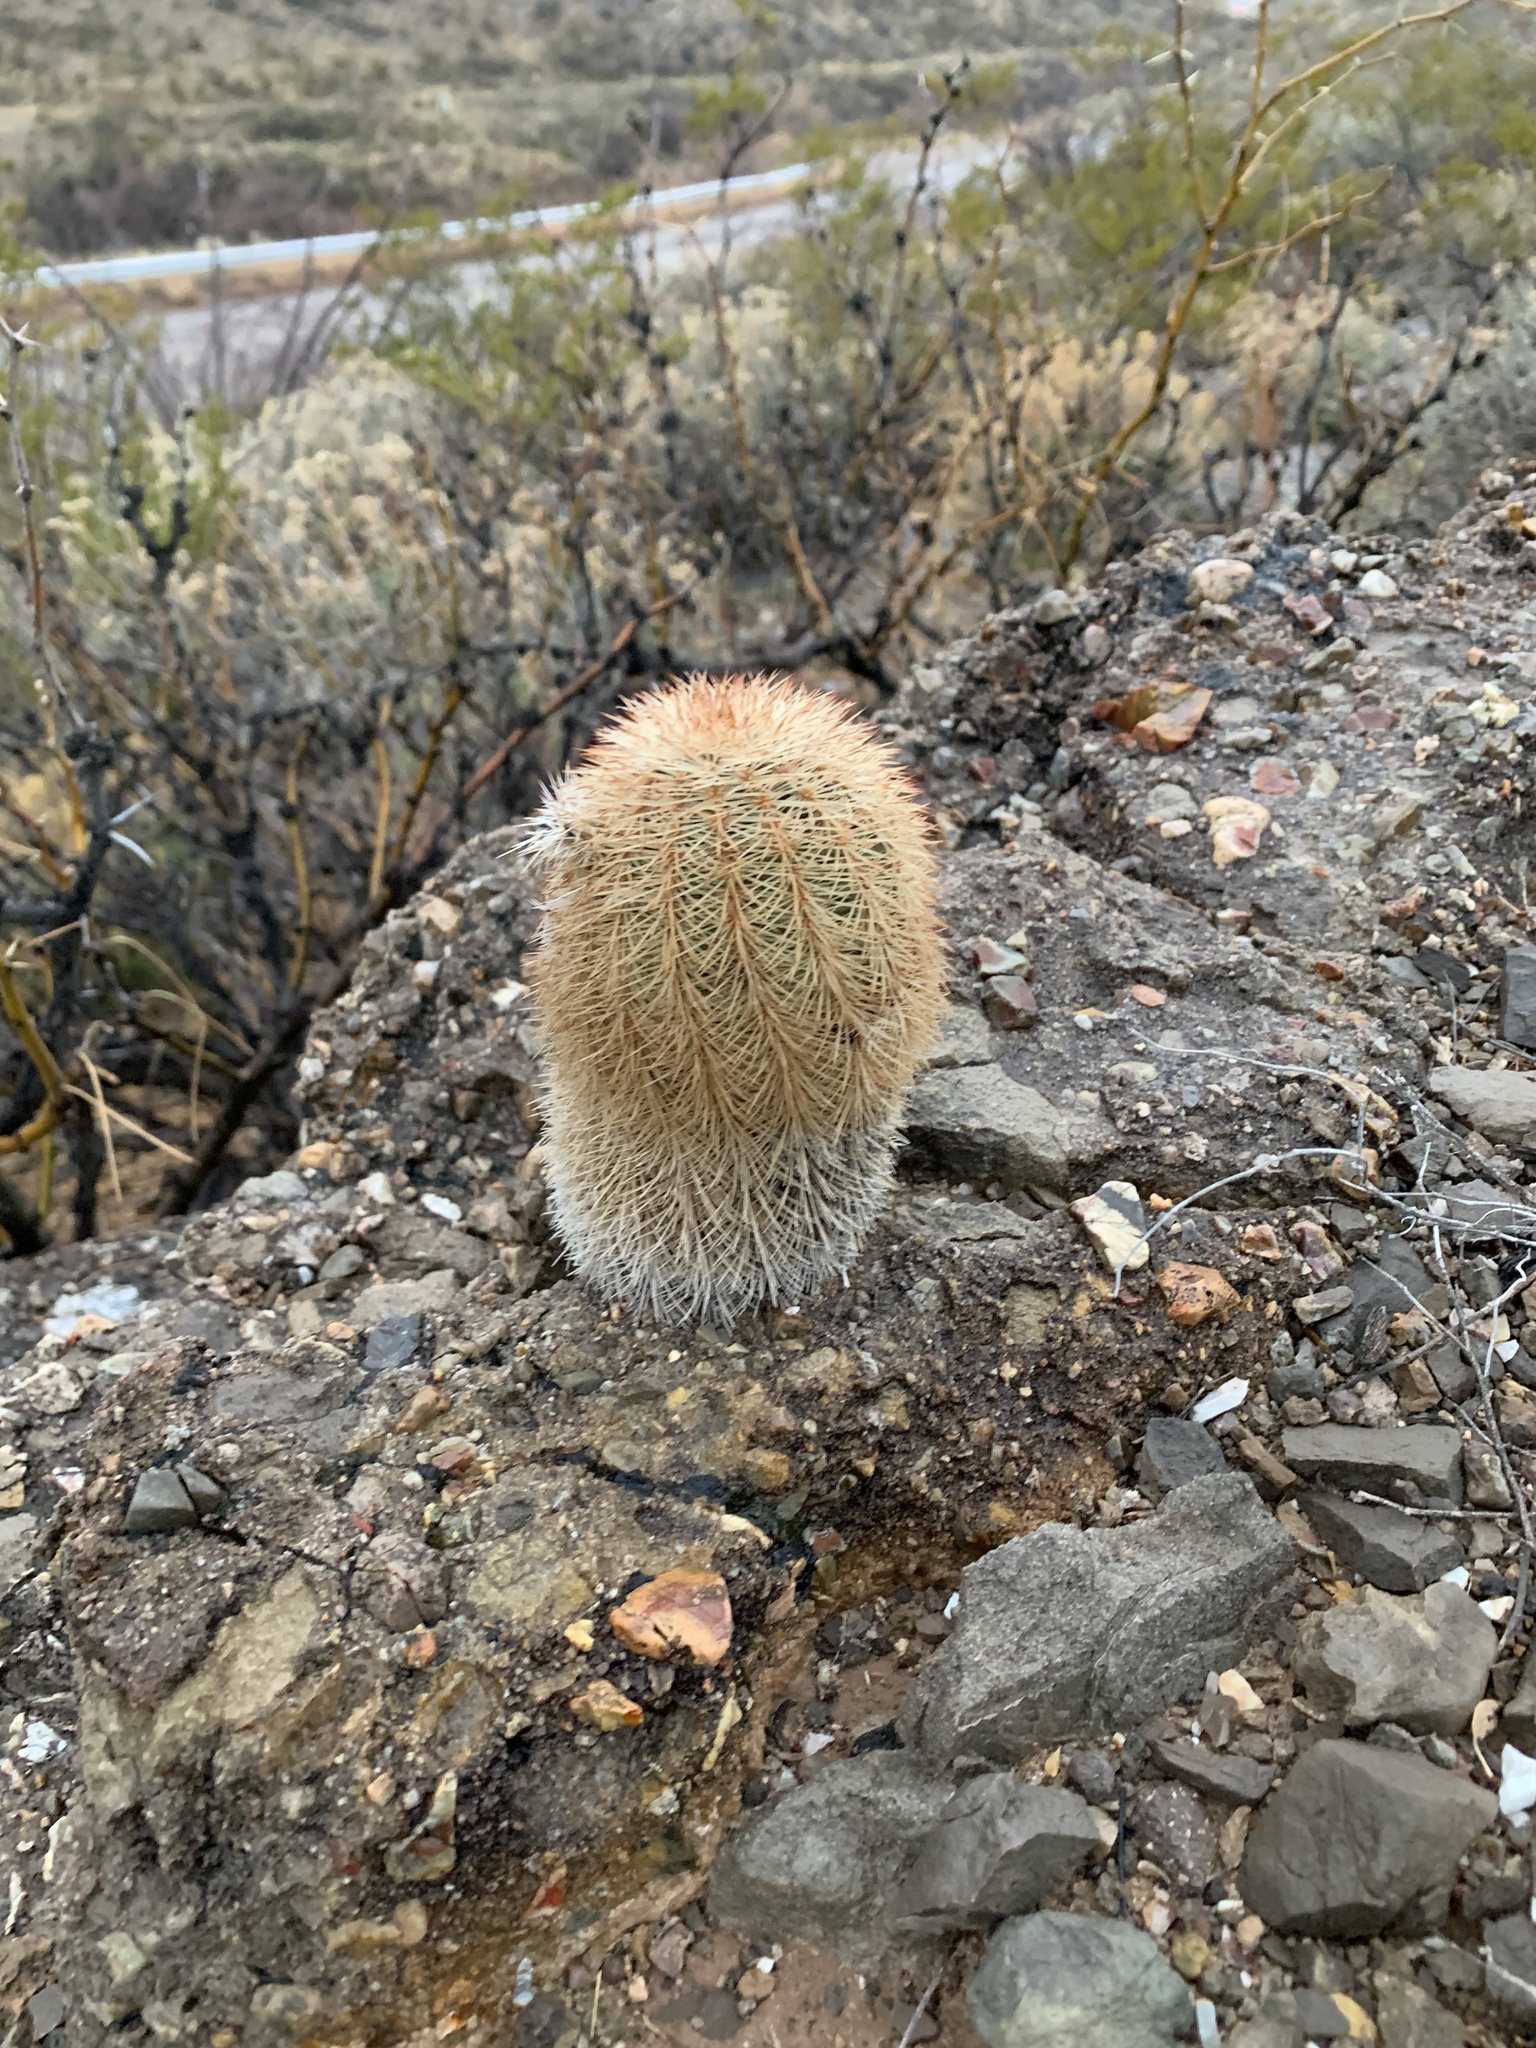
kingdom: Plantae
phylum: Tracheophyta
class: Magnoliopsida
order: Caryophyllales
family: Cactaceae
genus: Echinocereus
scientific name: Echinocereus dasyacanthus
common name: Spiny hedgehog cactus
